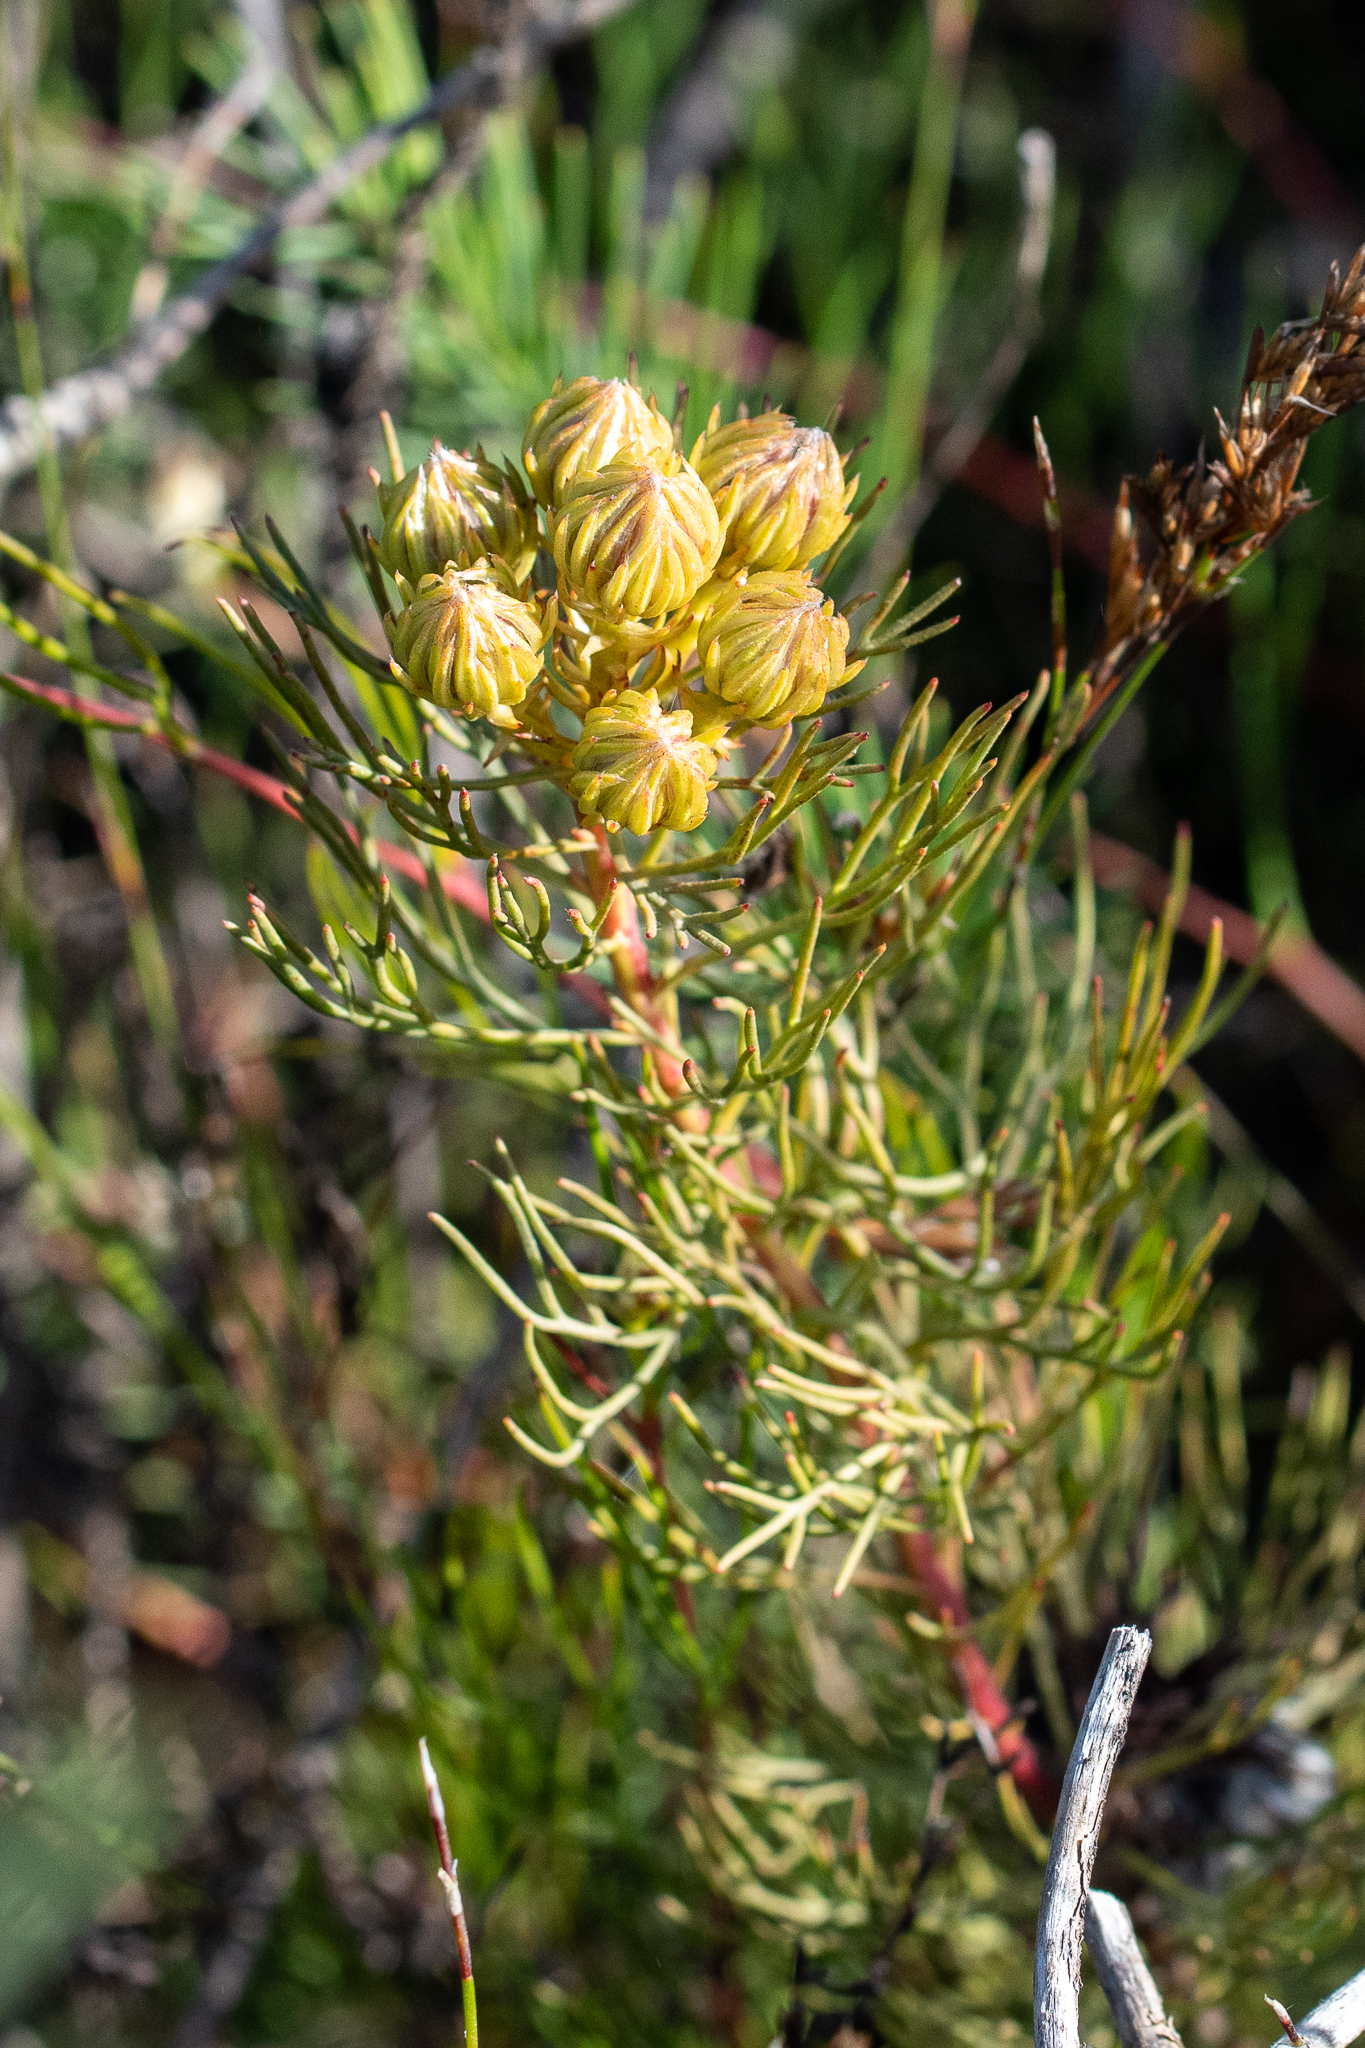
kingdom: Plantae
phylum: Tracheophyta
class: Magnoliopsida
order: Proteales
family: Proteaceae
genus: Serruria
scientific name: Serruria phylicoides
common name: Bearded spiderhead
